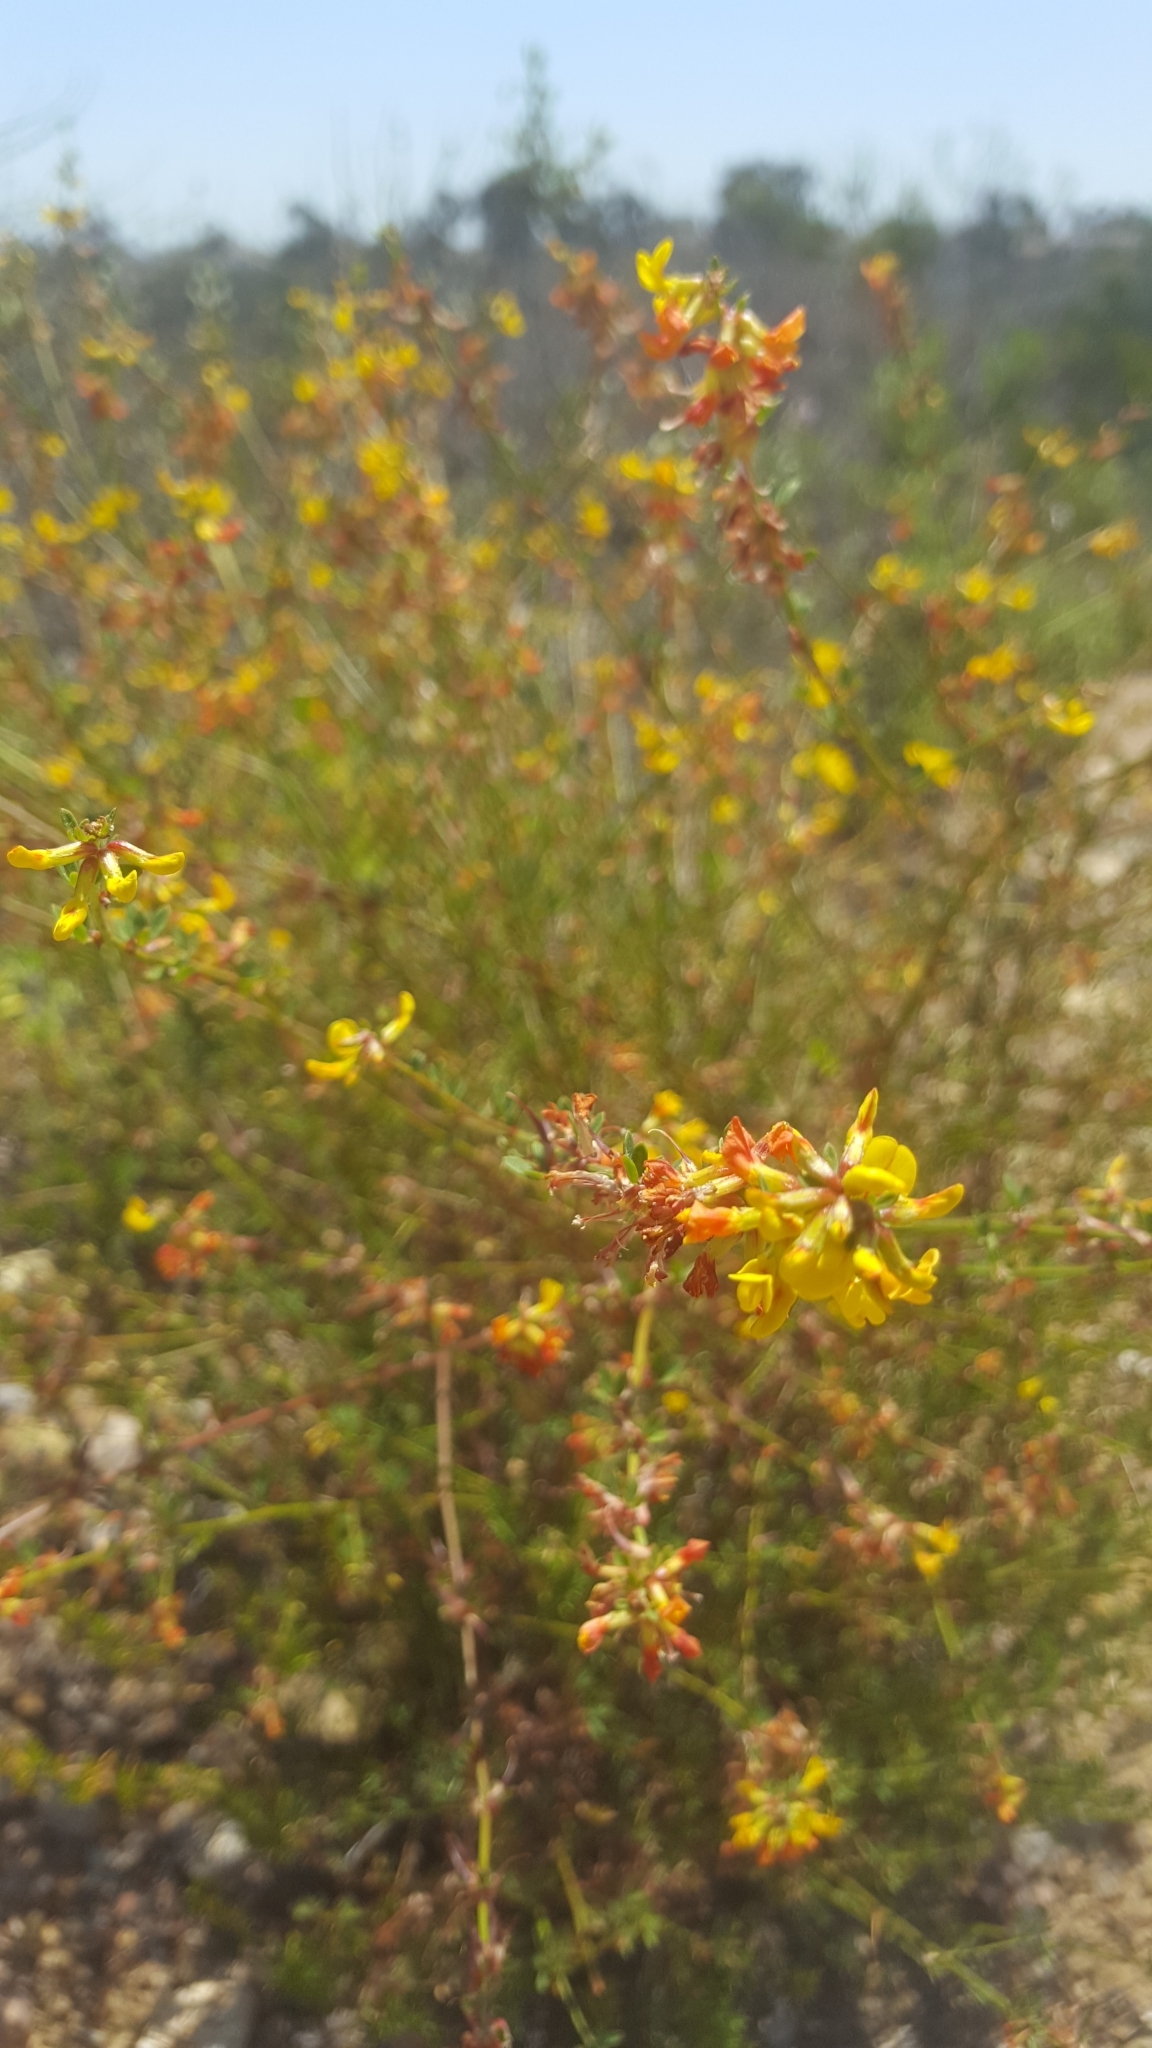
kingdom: Plantae
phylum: Tracheophyta
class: Magnoliopsida
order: Fabales
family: Fabaceae
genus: Acmispon
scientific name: Acmispon glaber
